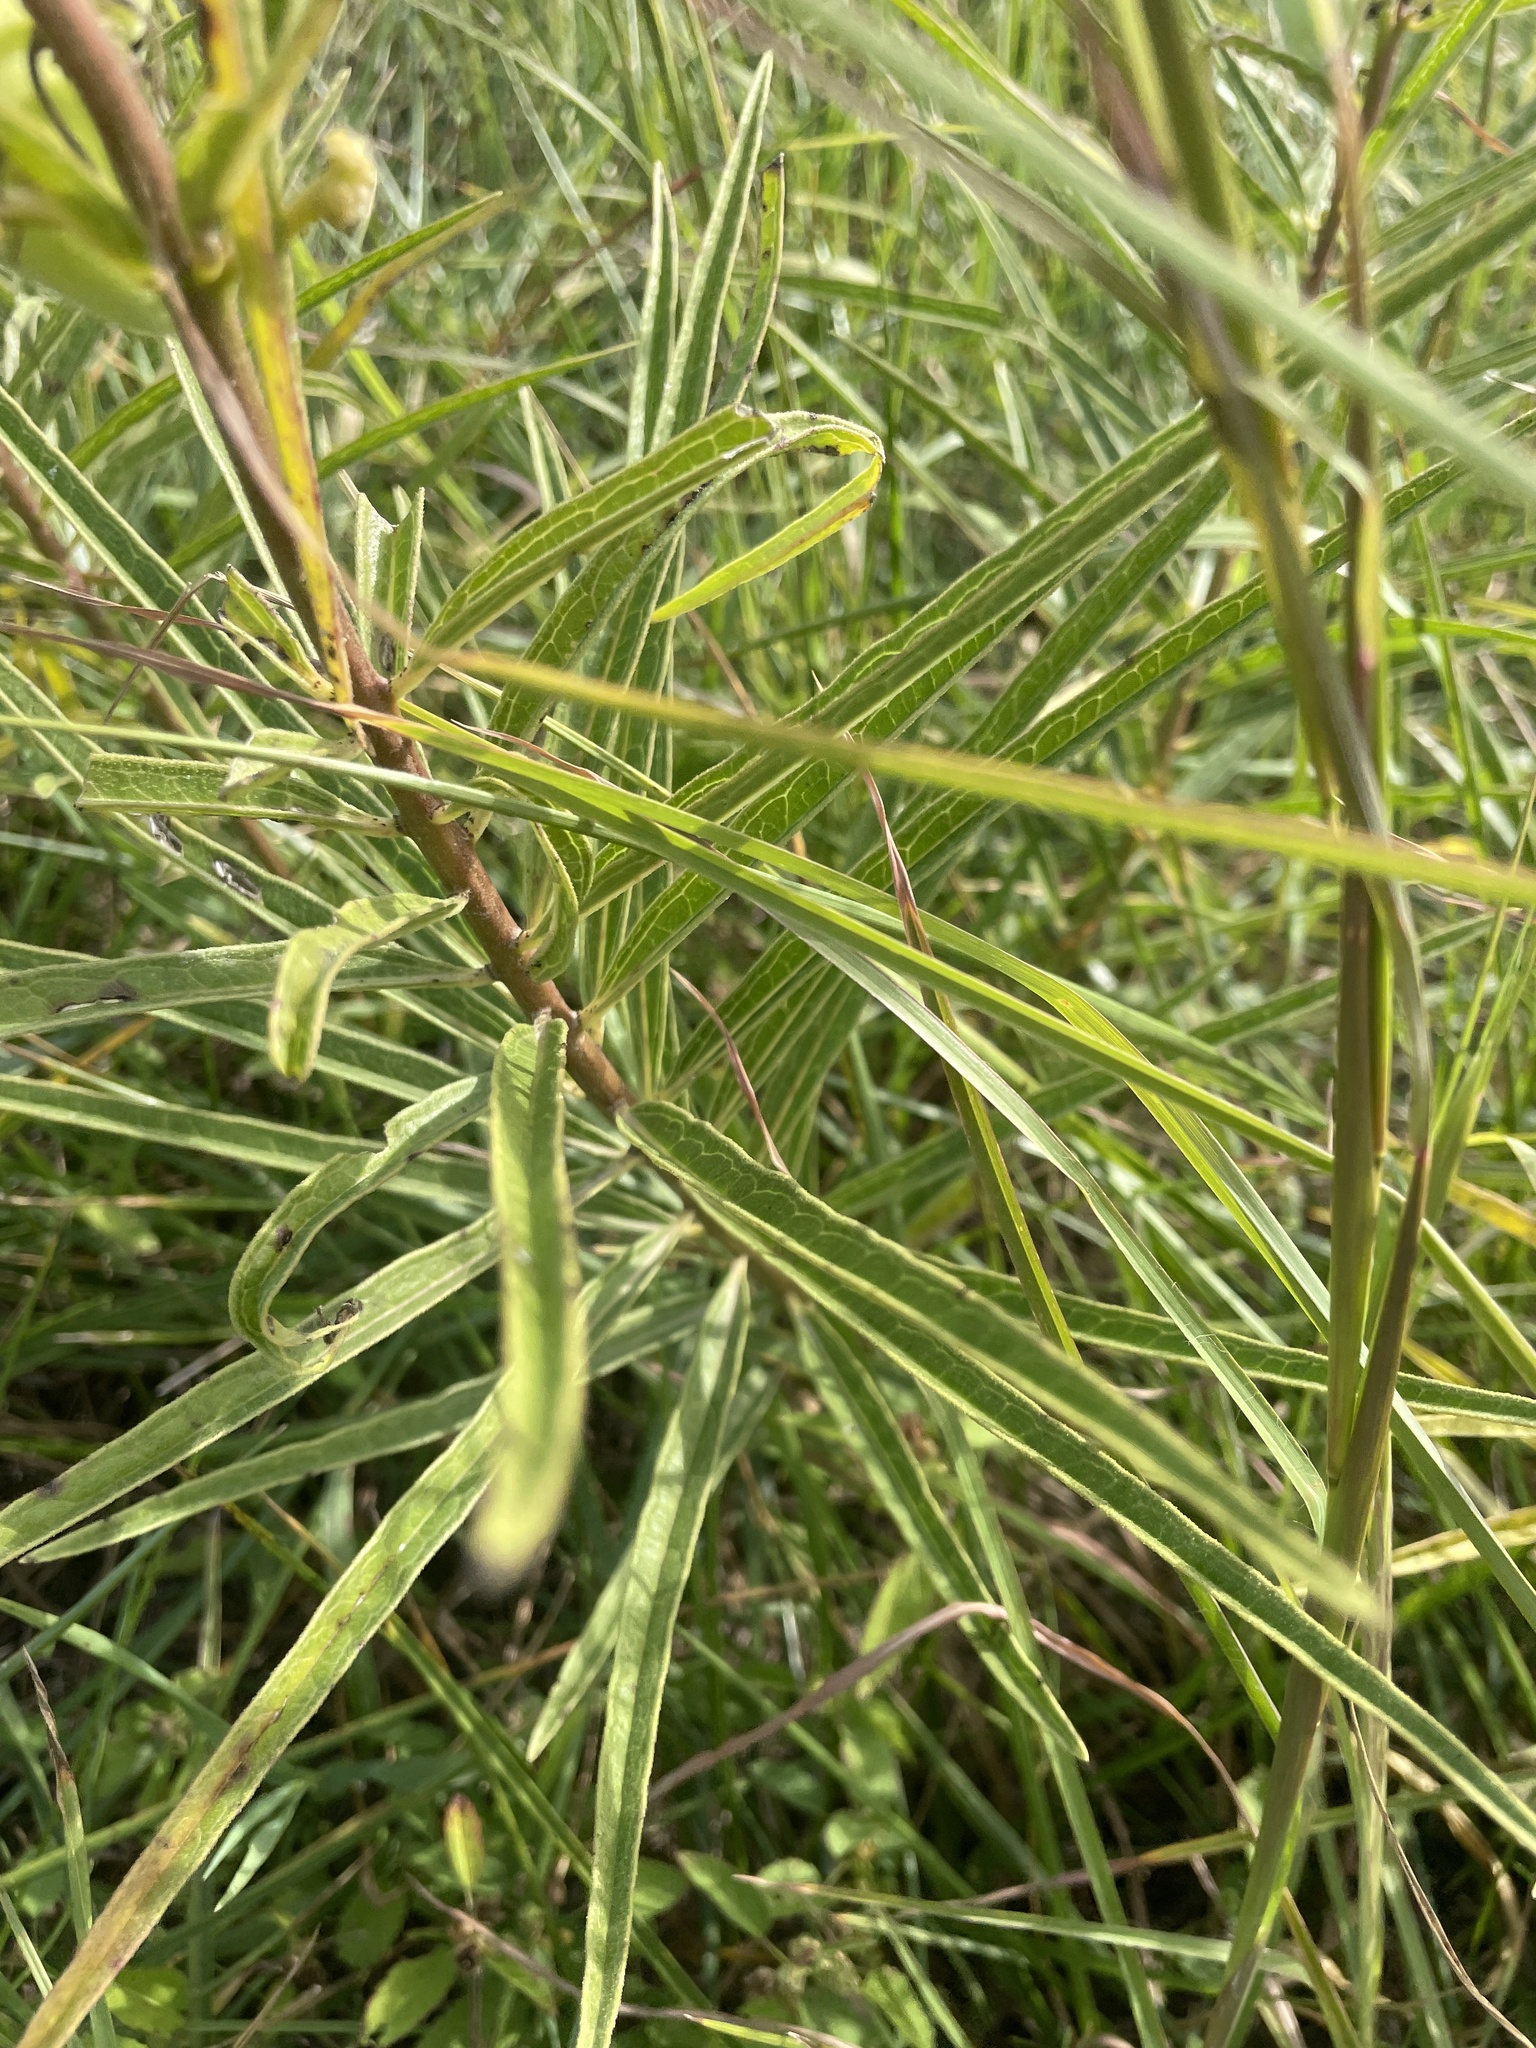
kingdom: Plantae
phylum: Tracheophyta
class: Magnoliopsida
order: Gentianales
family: Apocynaceae
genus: Asclepias
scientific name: Asclepias hirtella
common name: Prairie milkweed
